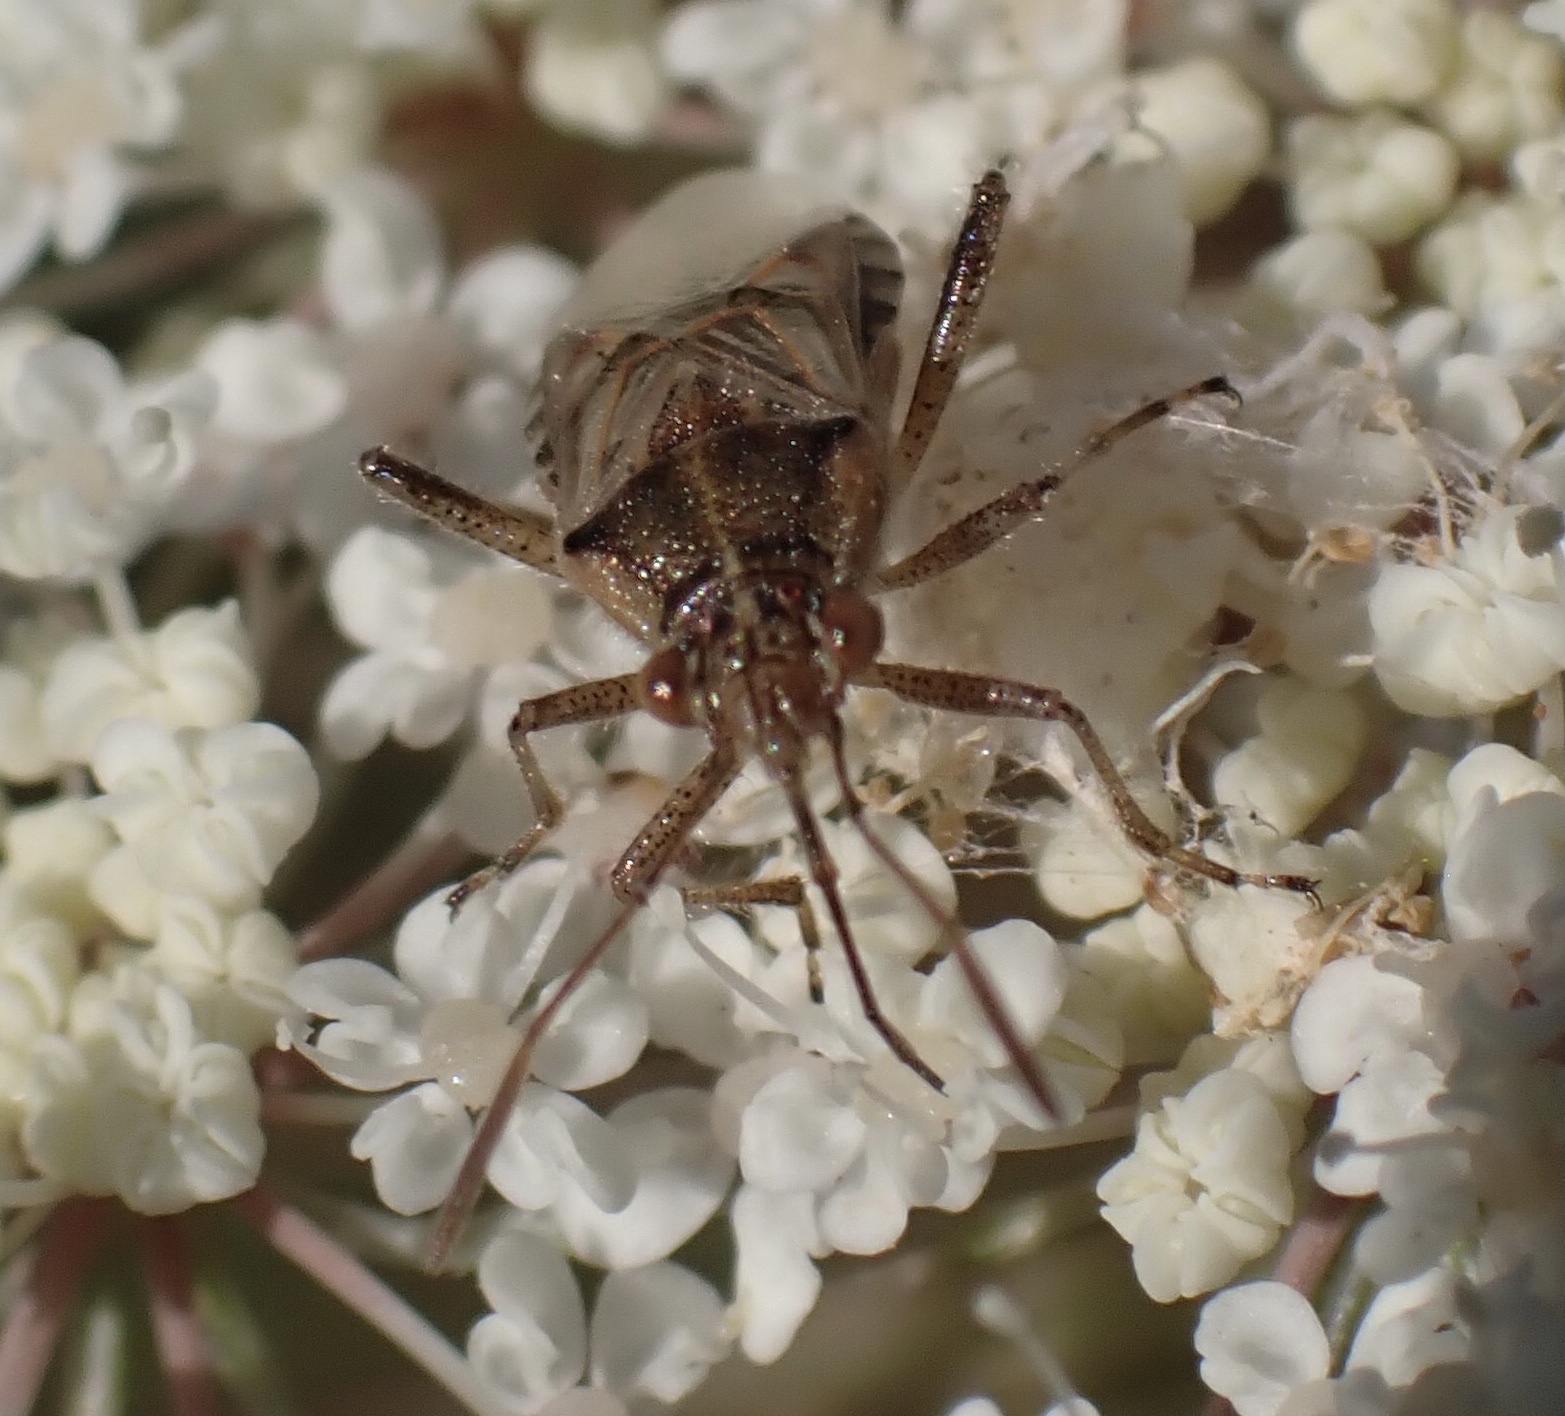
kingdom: Animalia
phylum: Arthropoda
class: Insecta
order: Hemiptera
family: Rhopalidae
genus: Liorhyssus
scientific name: Liorhyssus hyalinus
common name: Scentless plant bug
